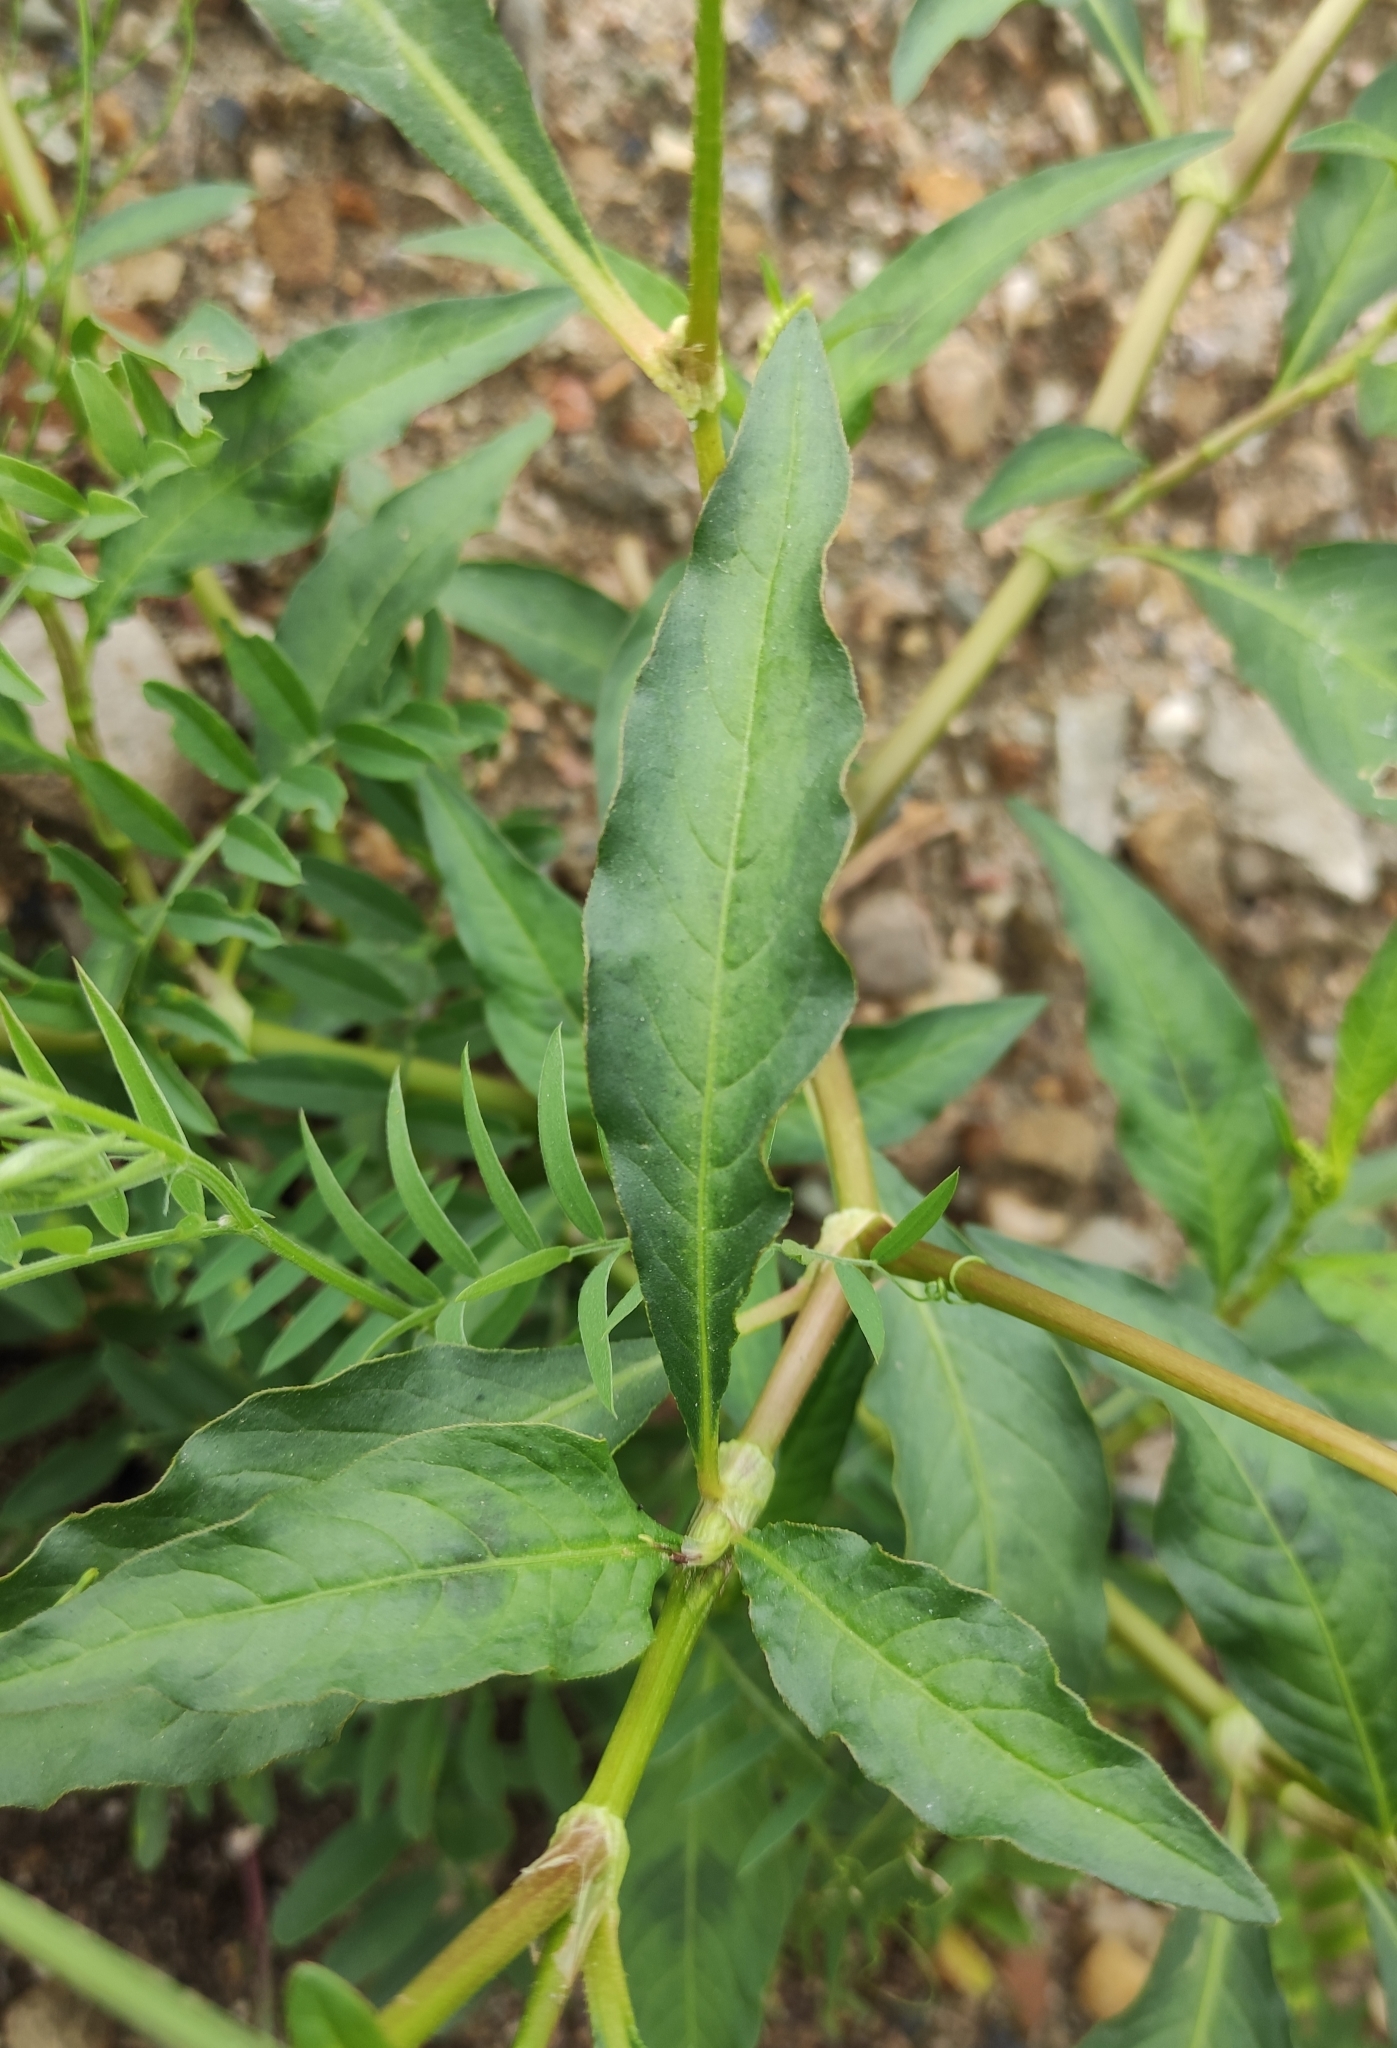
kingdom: Plantae
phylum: Tracheophyta
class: Magnoliopsida
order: Caryophyllales
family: Polygonaceae
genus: Persicaria
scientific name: Persicaria lapathifolia
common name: Curlytop knotweed
